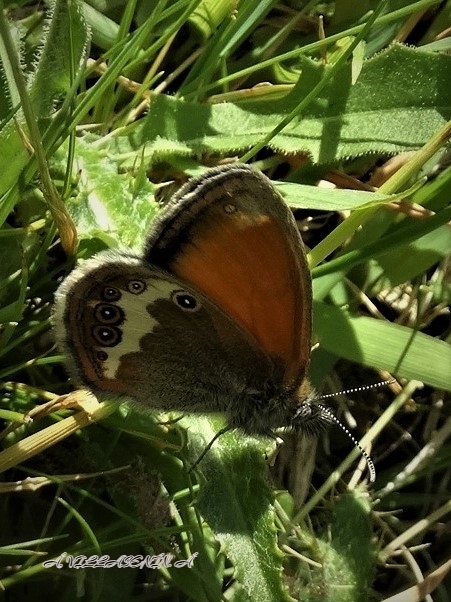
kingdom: Animalia
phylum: Arthropoda
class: Insecta
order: Lepidoptera
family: Nymphalidae
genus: Coenonympha
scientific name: Coenonympha arcania
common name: Pearly heath
